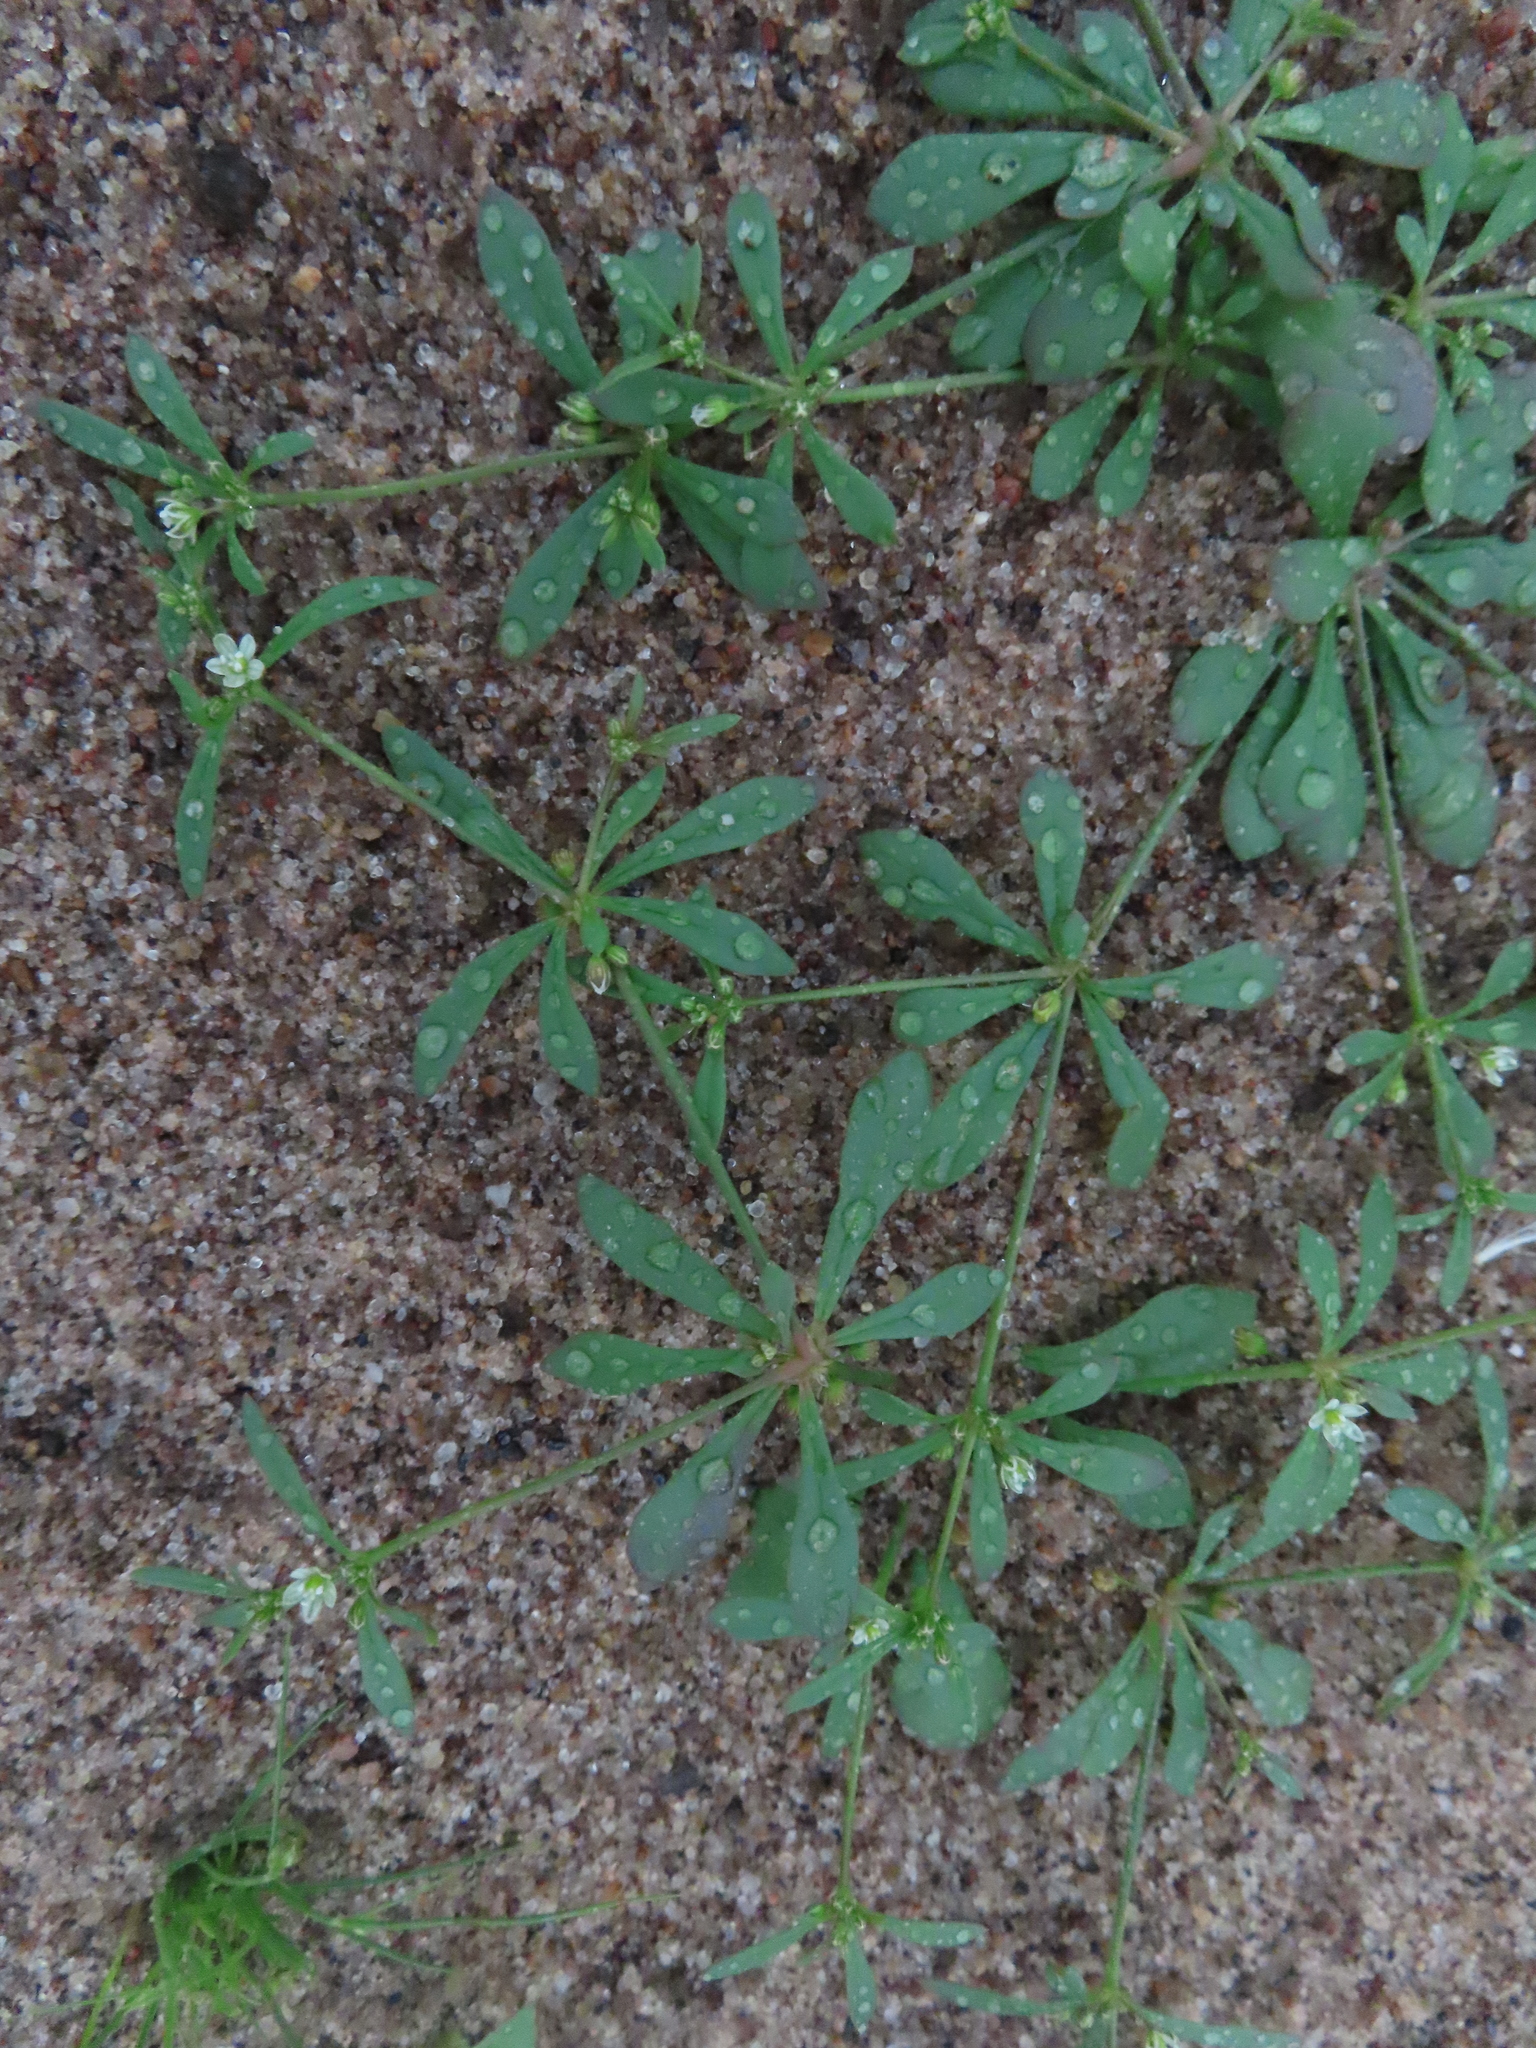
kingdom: Plantae
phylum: Tracheophyta
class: Magnoliopsida
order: Caryophyllales
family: Molluginaceae
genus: Mollugo
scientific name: Mollugo verticillata
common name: Green carpetweed
